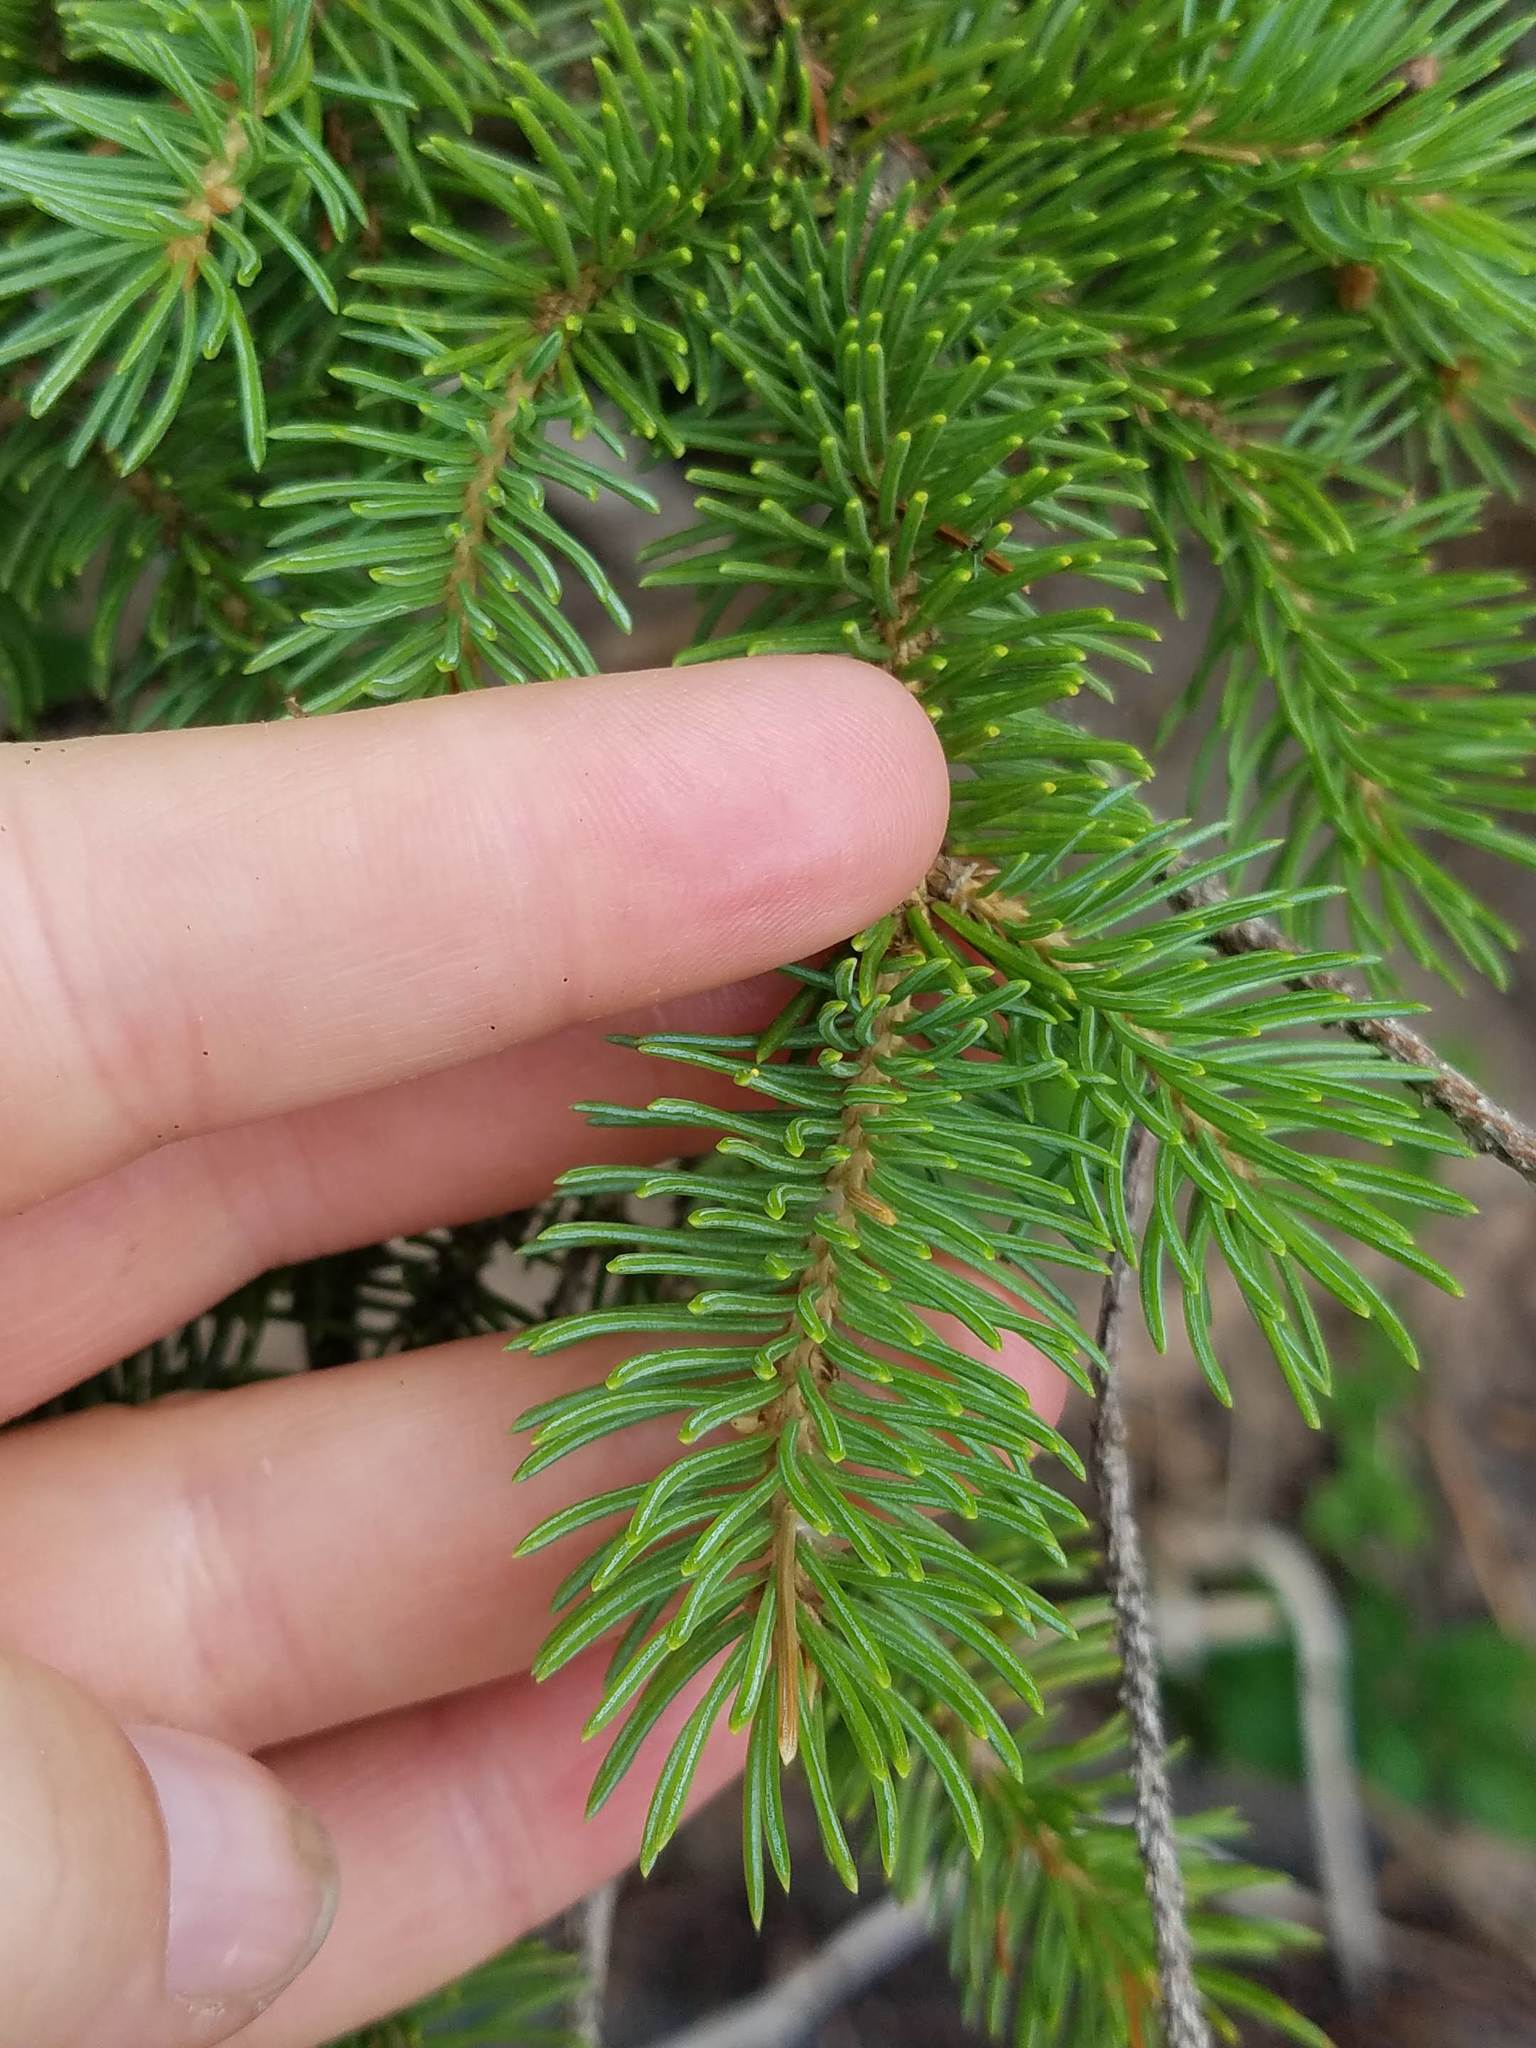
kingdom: Plantae
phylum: Tracheophyta
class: Pinopsida
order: Pinales
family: Pinaceae
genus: Picea
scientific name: Picea glauca
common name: White spruce
